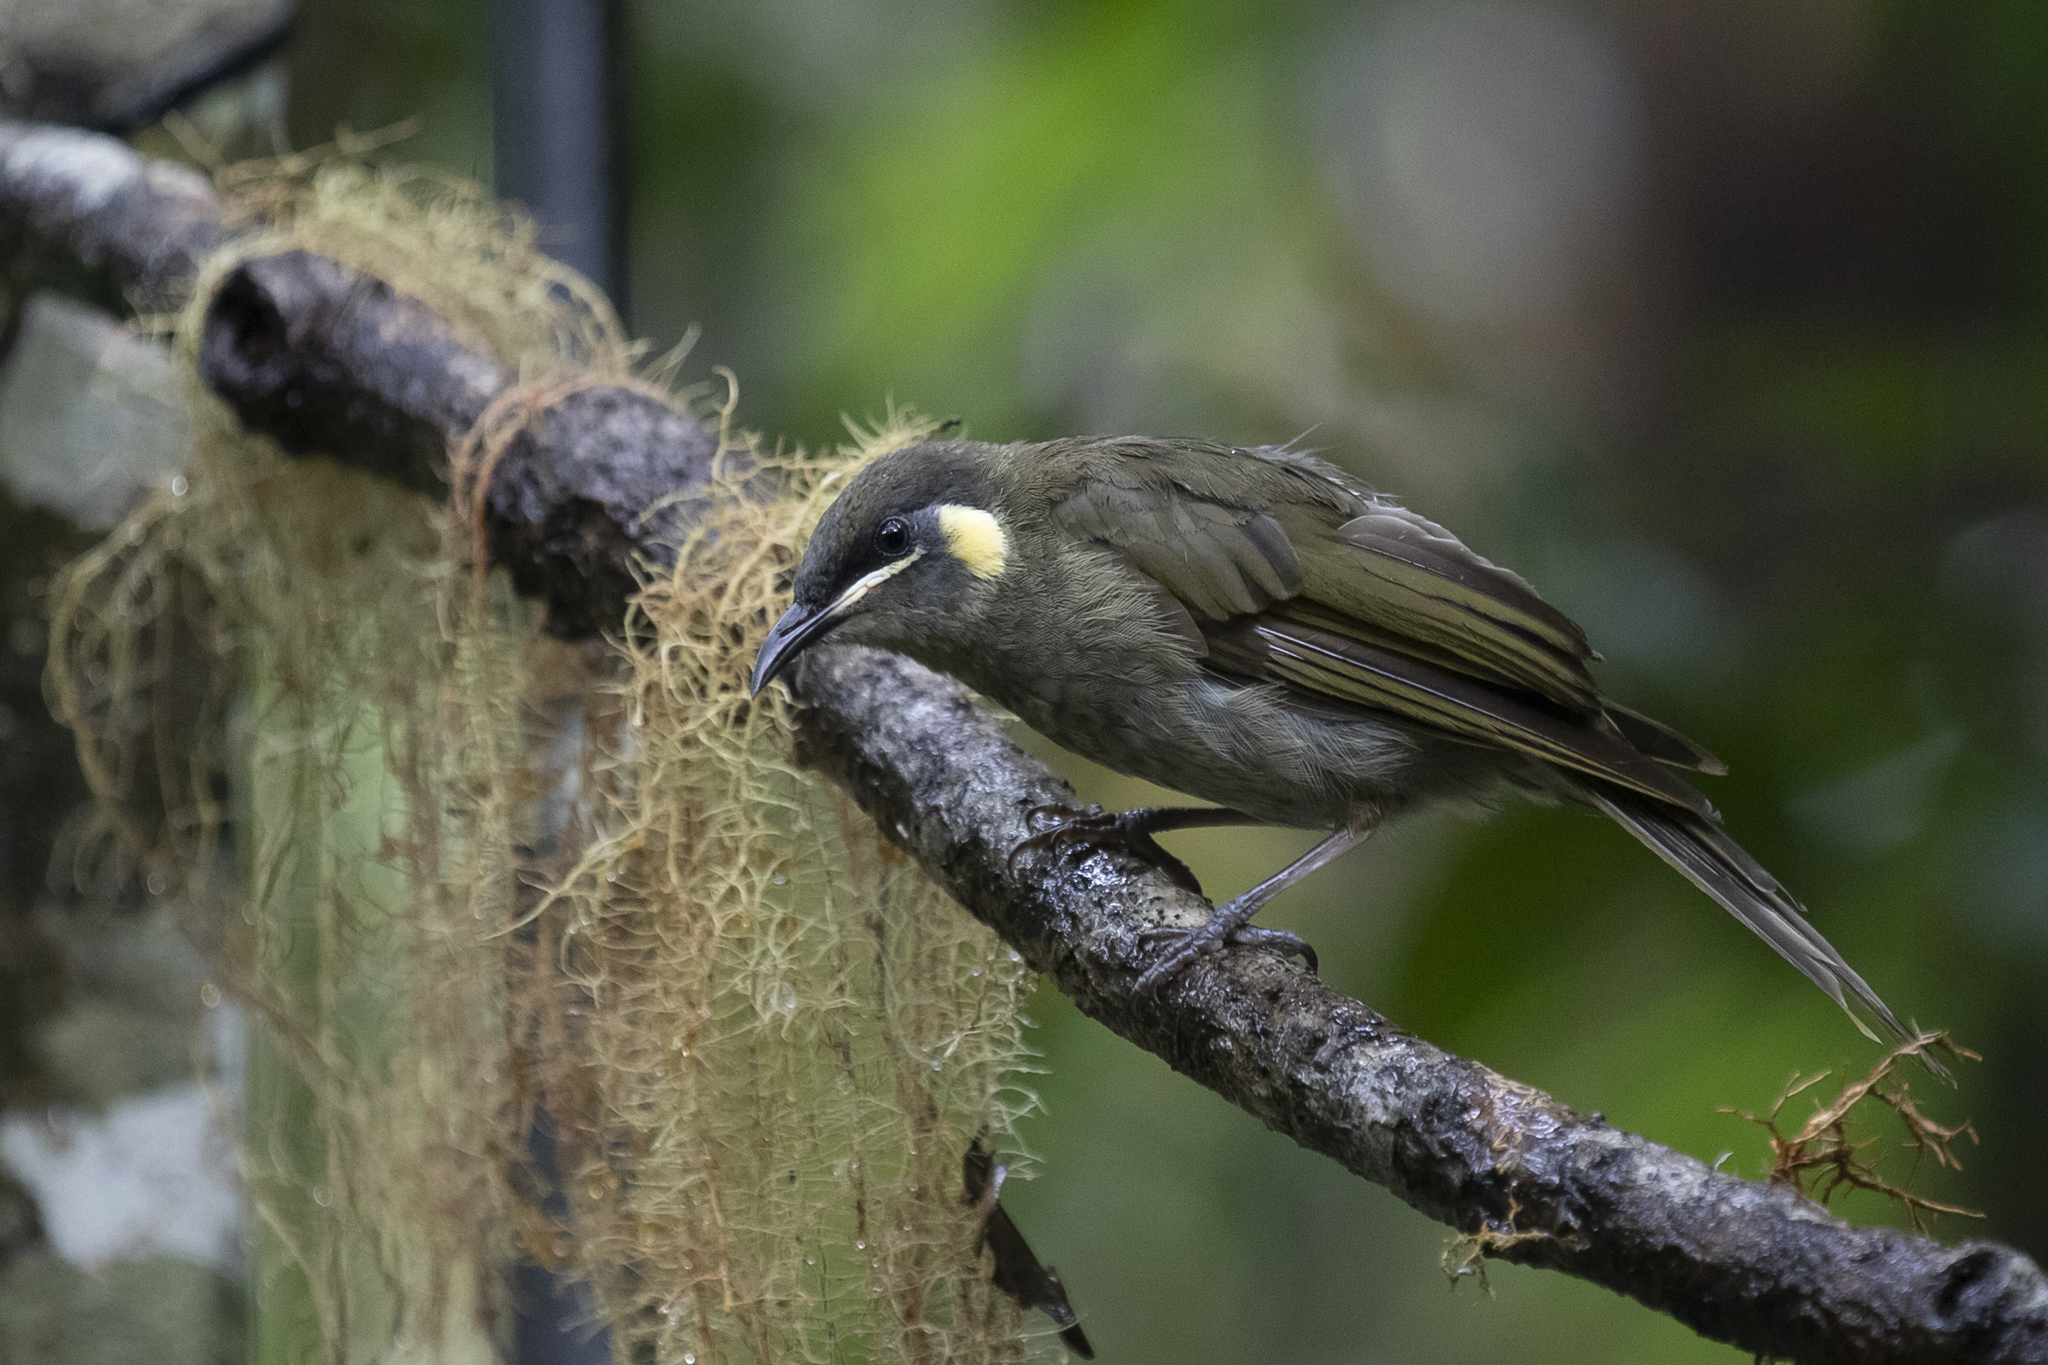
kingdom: Animalia
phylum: Chordata
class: Aves
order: Passeriformes
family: Meliphagidae
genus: Meliphaga
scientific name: Meliphaga lewinii
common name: Lewin's honeyeater
